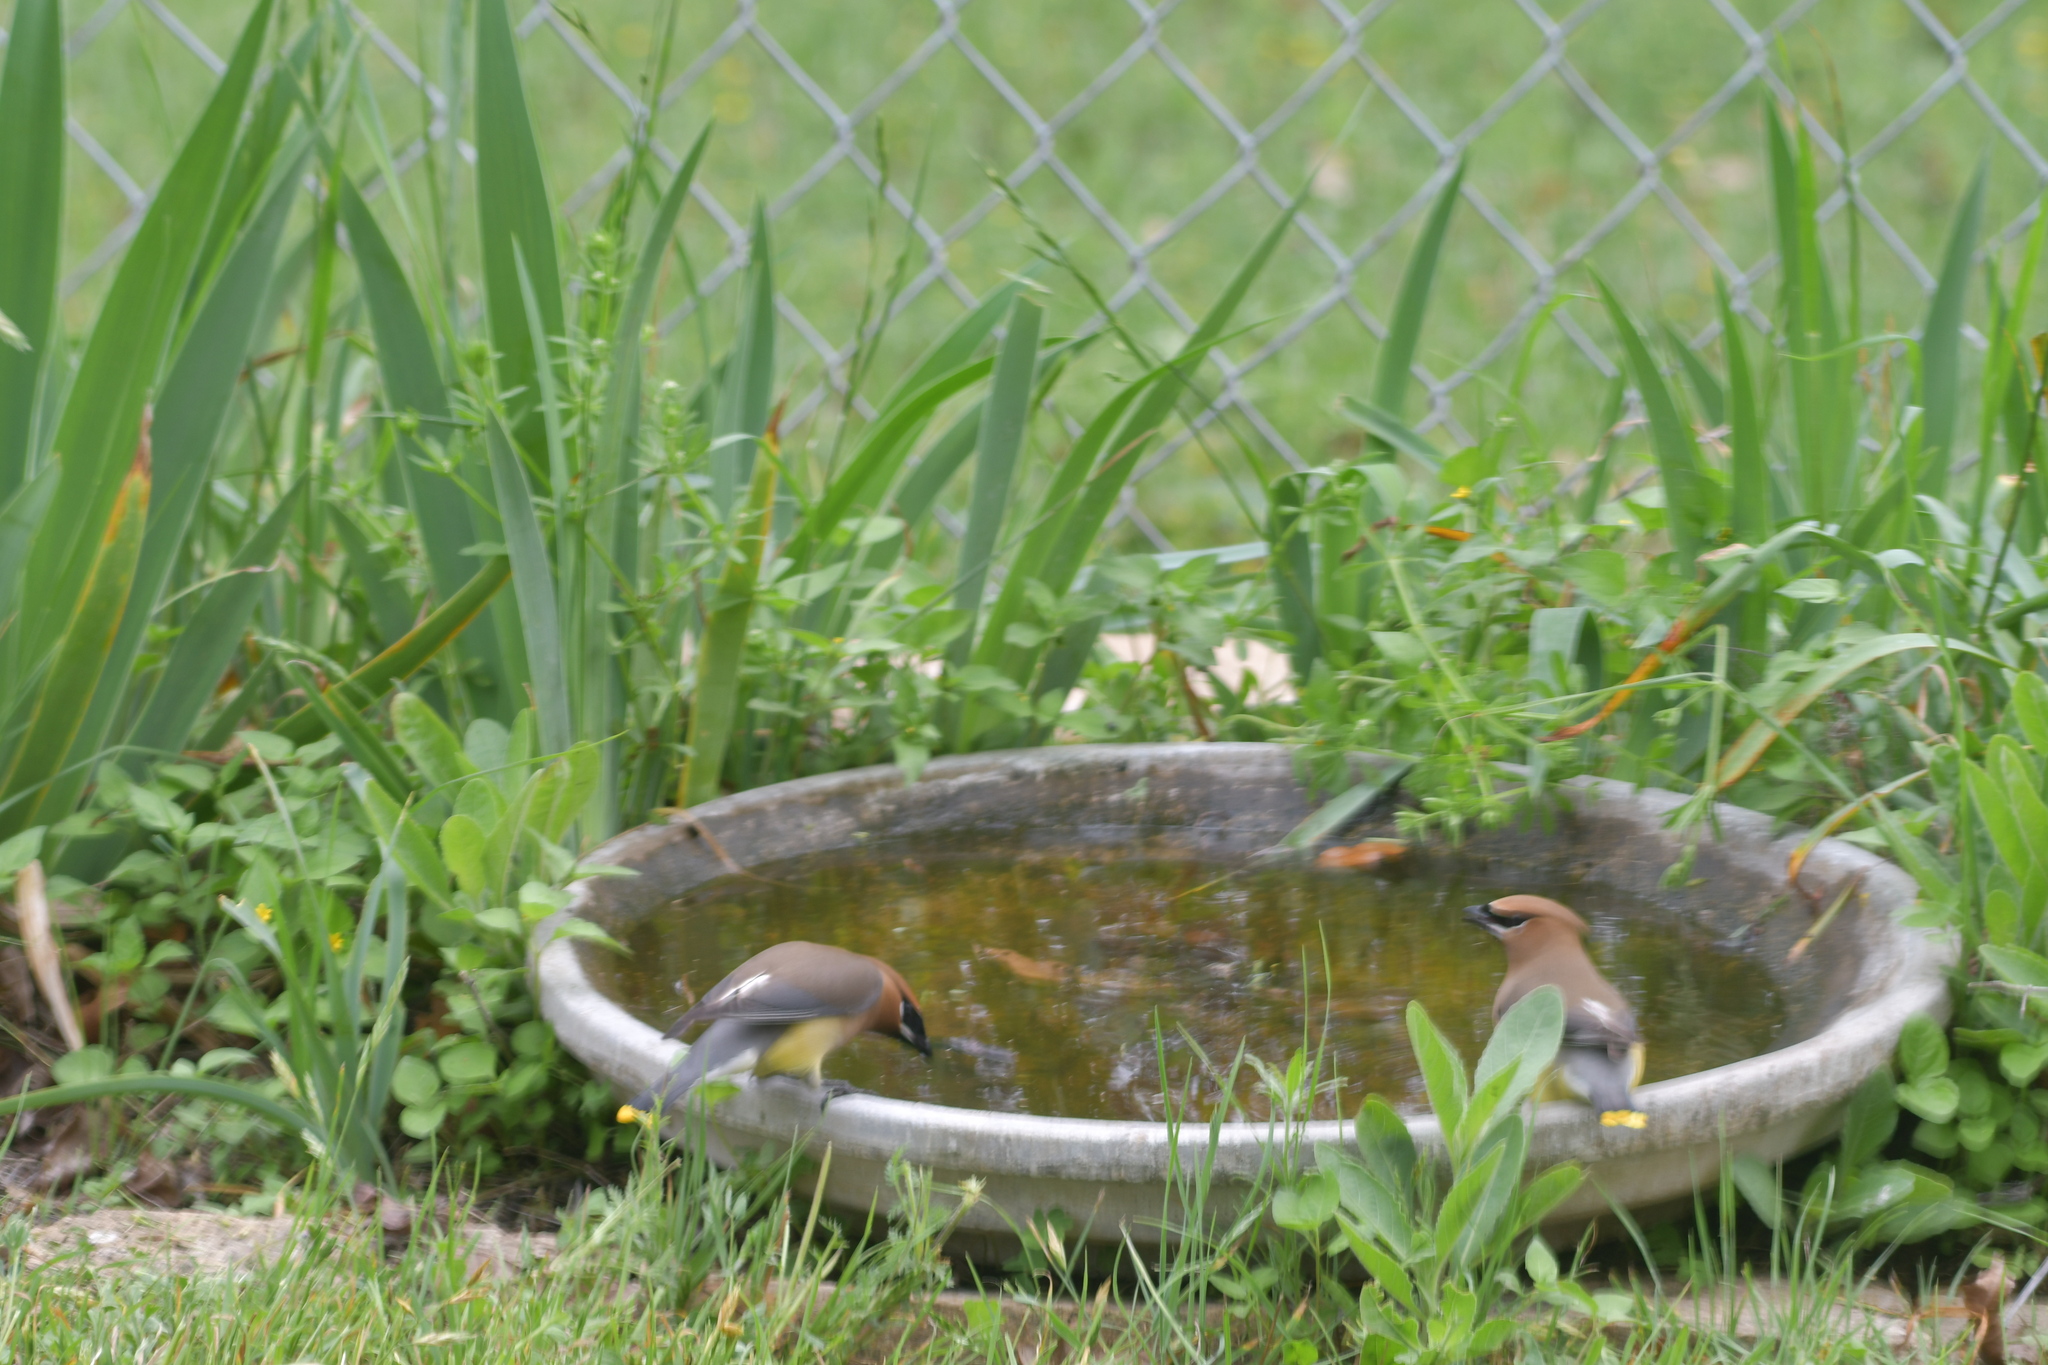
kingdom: Animalia
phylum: Chordata
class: Aves
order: Passeriformes
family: Bombycillidae
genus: Bombycilla
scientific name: Bombycilla cedrorum
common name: Cedar waxwing
